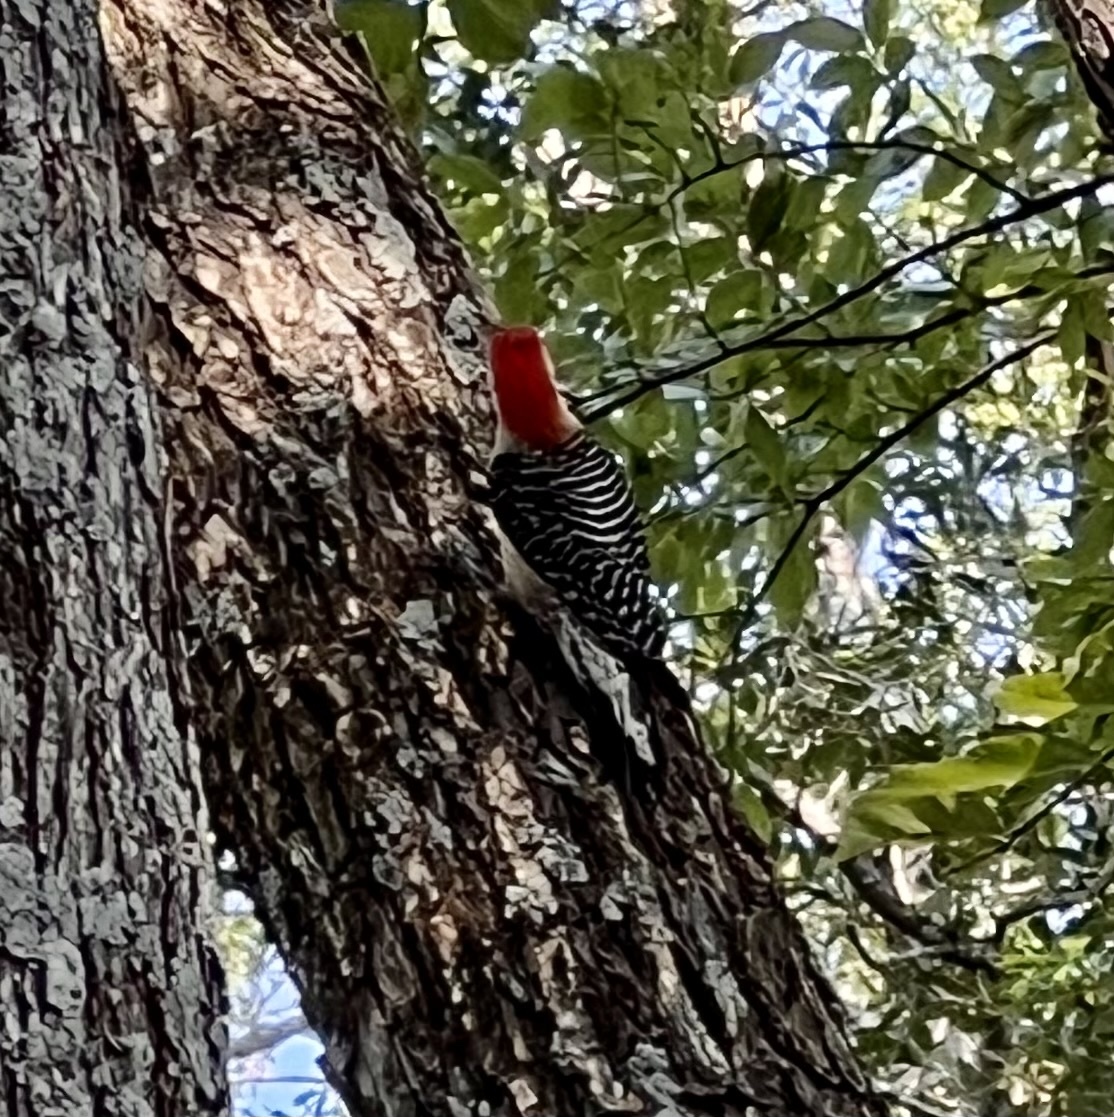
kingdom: Animalia
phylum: Chordata
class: Aves
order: Piciformes
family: Picidae
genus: Melanerpes
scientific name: Melanerpes carolinus
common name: Red-bellied woodpecker
